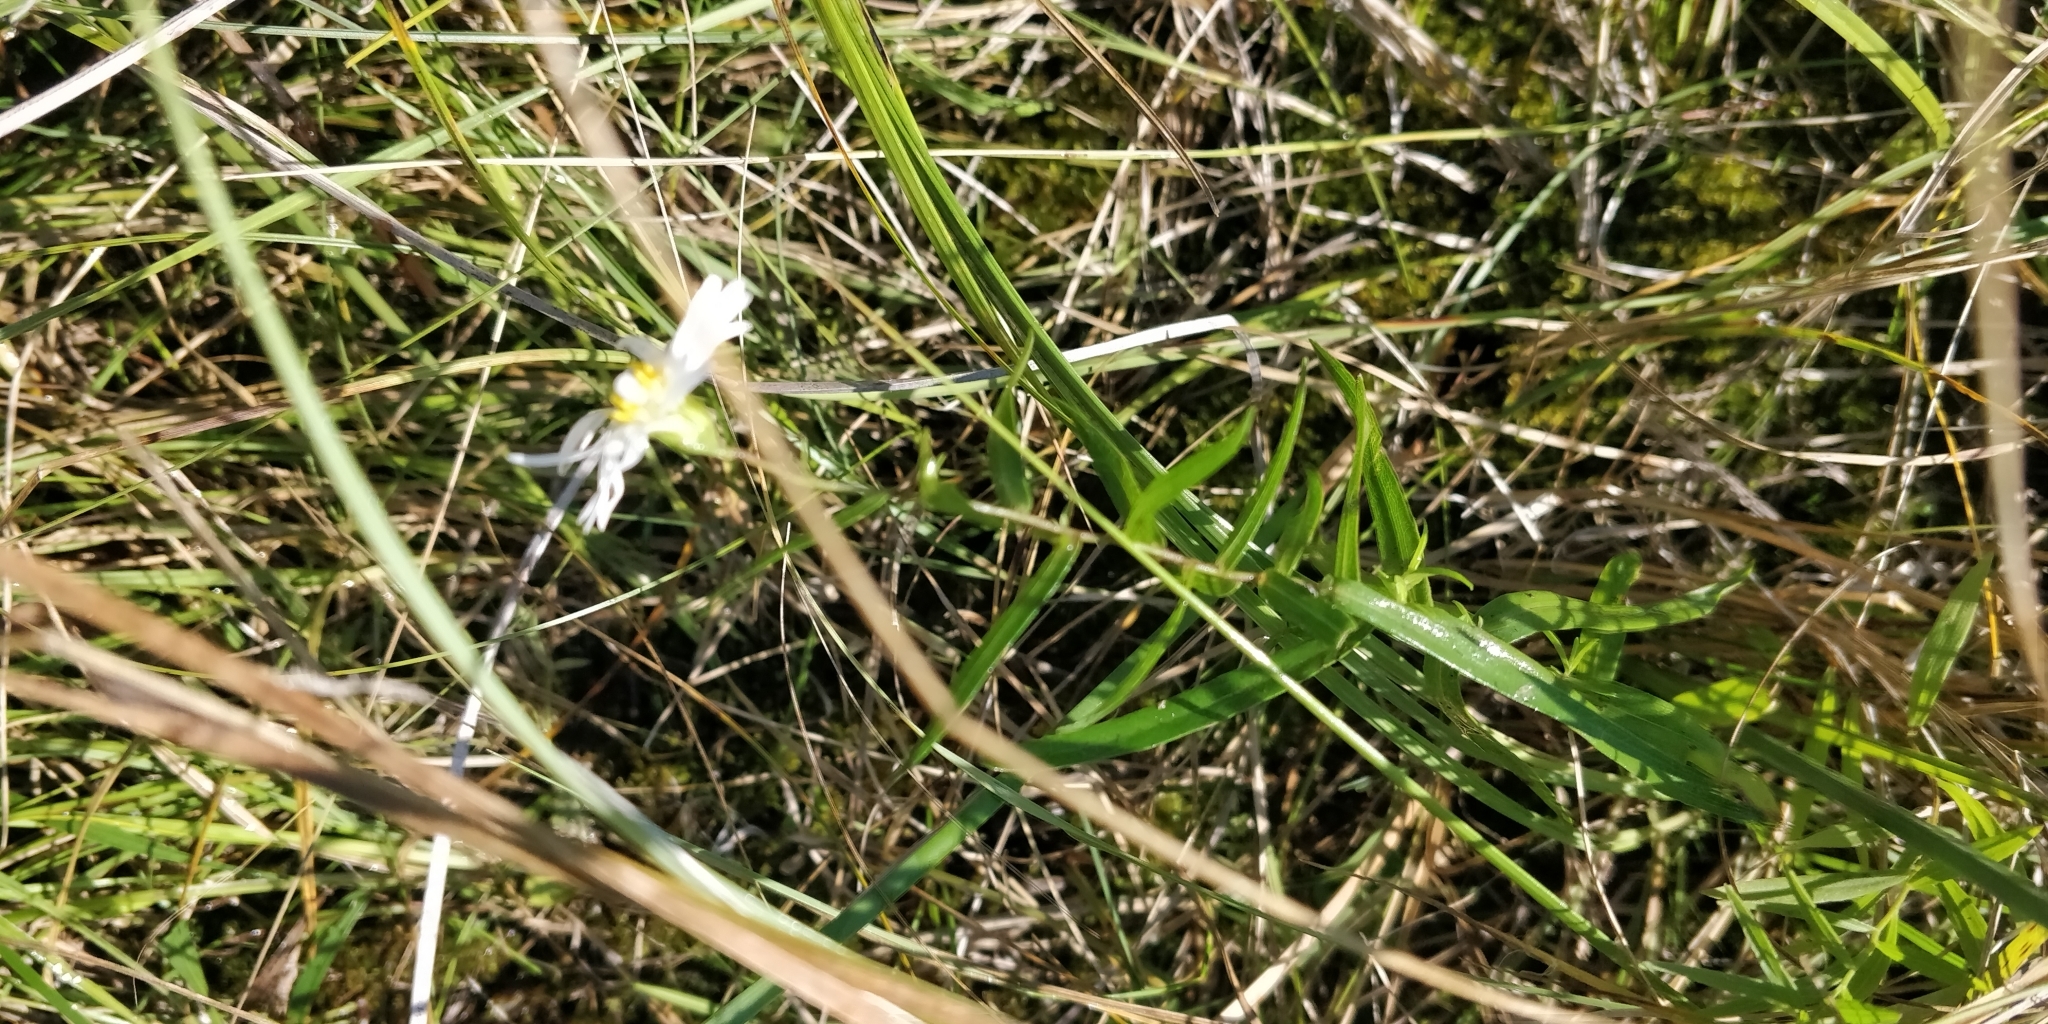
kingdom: Plantae
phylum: Tracheophyta
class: Magnoliopsida
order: Asterales
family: Asteraceae
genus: Symphyotrichum
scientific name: Symphyotrichum boreale
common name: Northern bog aster
